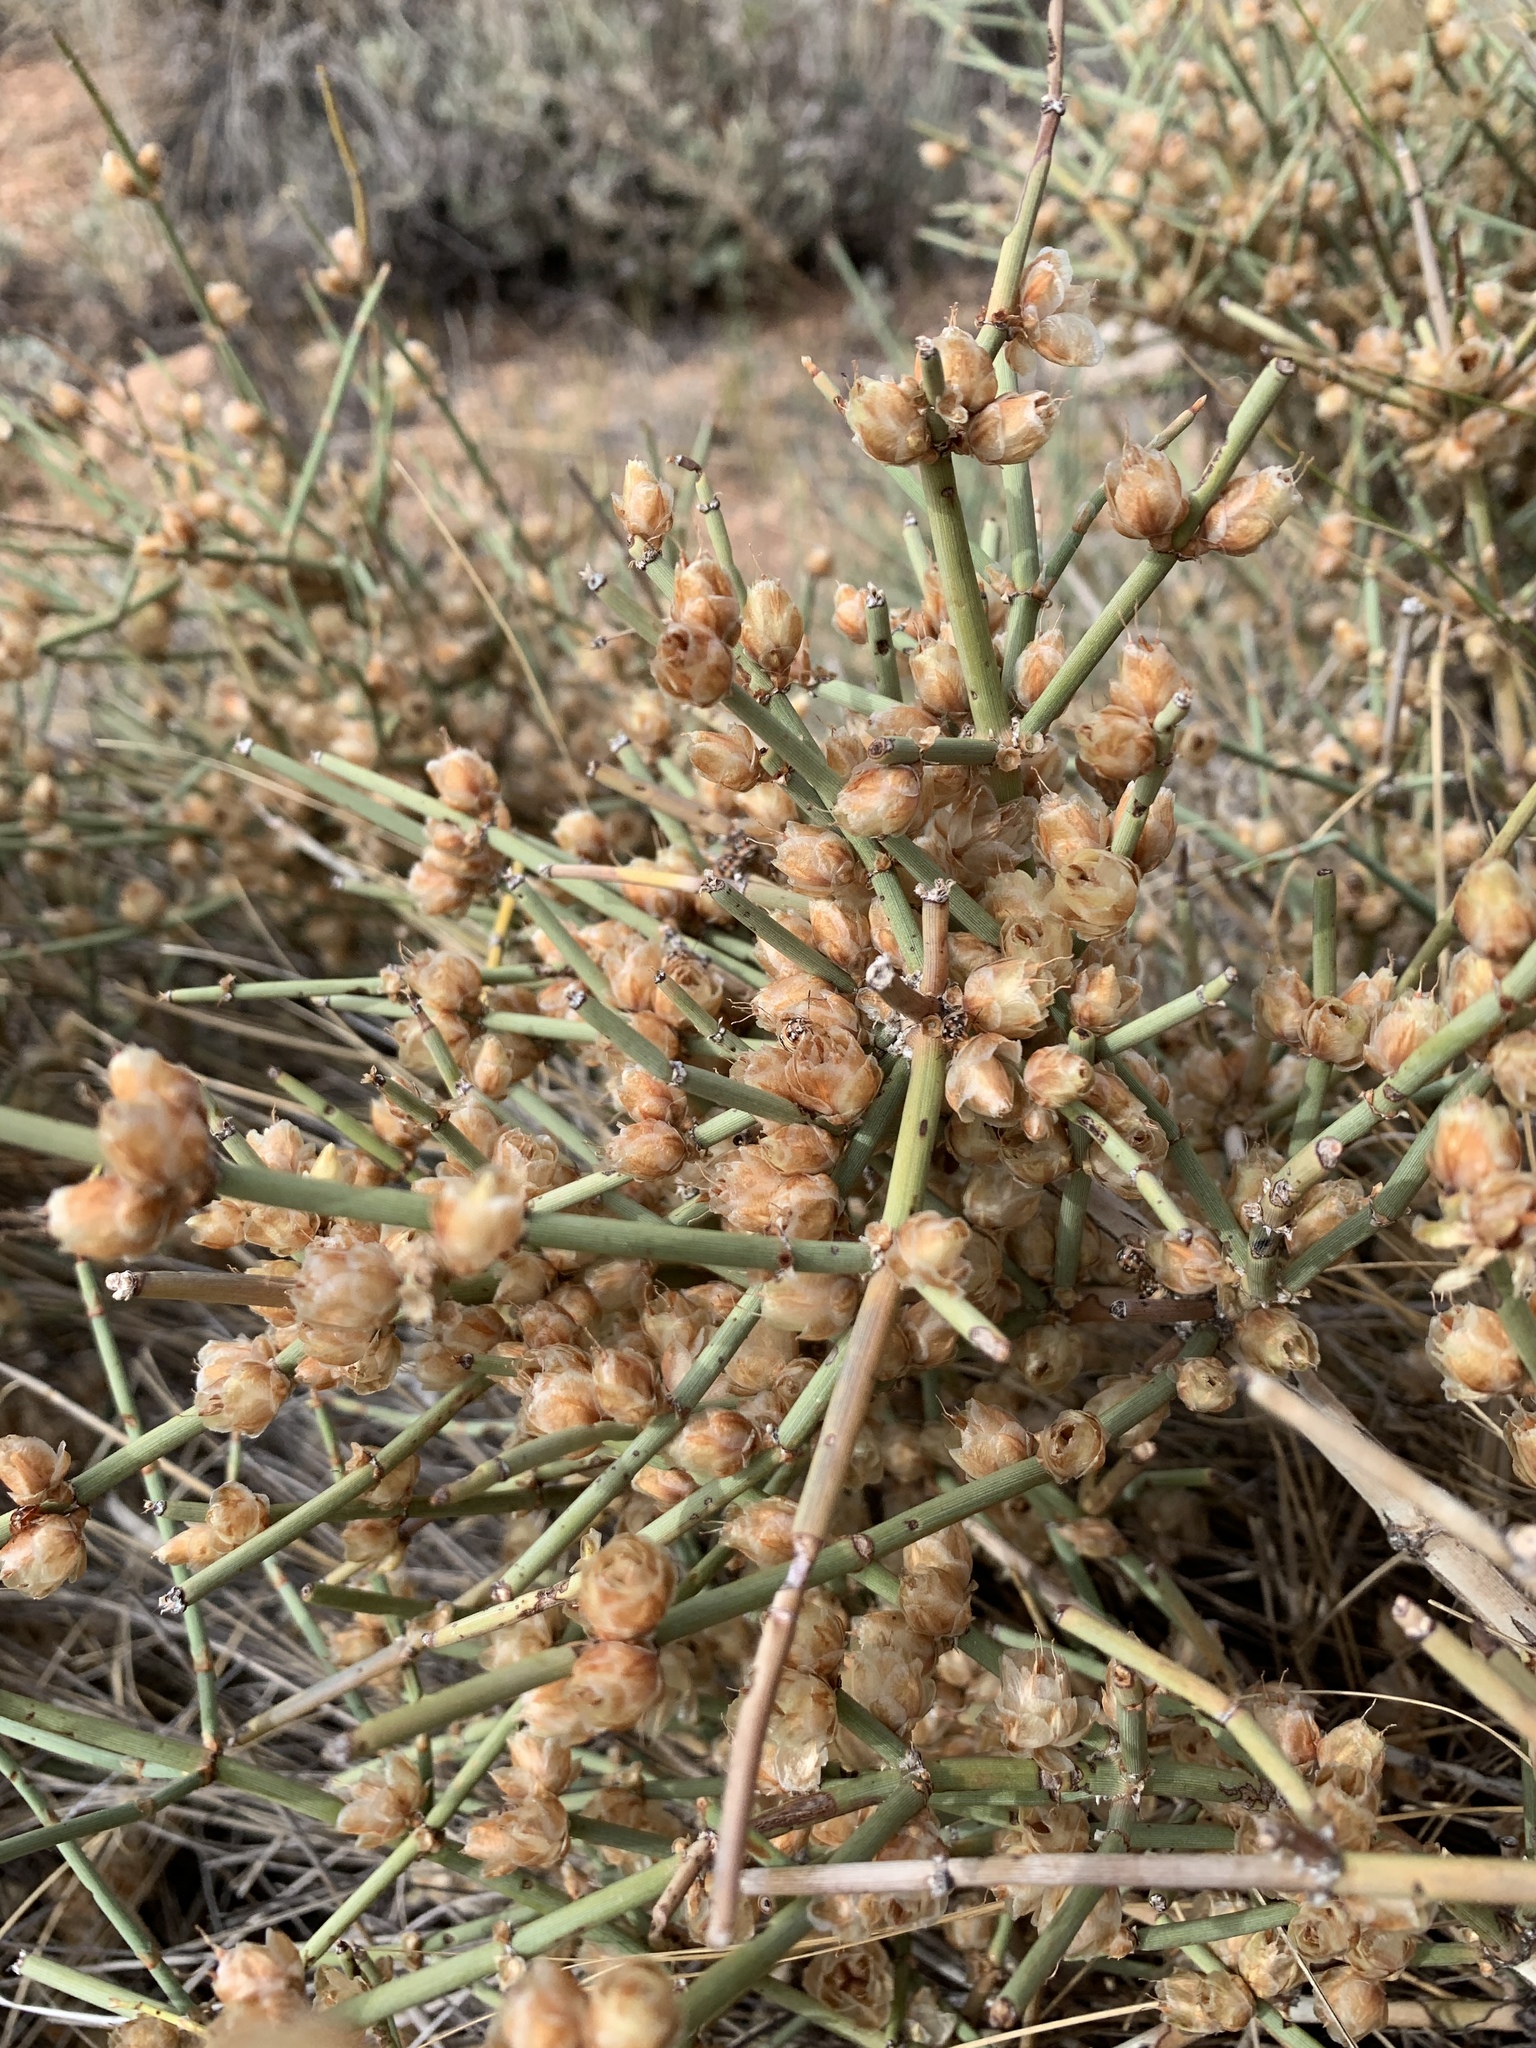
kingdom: Plantae
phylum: Tracheophyta
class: Gnetopsida
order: Ephedrales
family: Ephedraceae
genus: Ephedra
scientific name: Ephedra viridis
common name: Green ephedra
